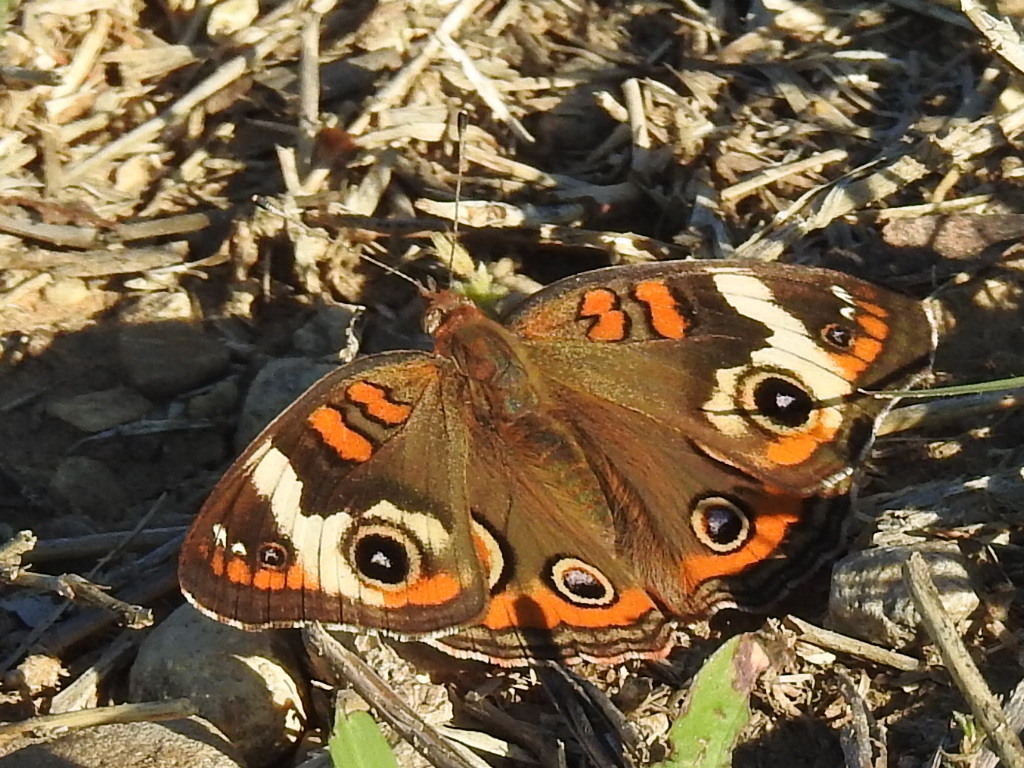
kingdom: Animalia
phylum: Arthropoda
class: Insecta
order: Lepidoptera
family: Nymphalidae
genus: Junonia
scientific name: Junonia coenia
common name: Common buckeye
